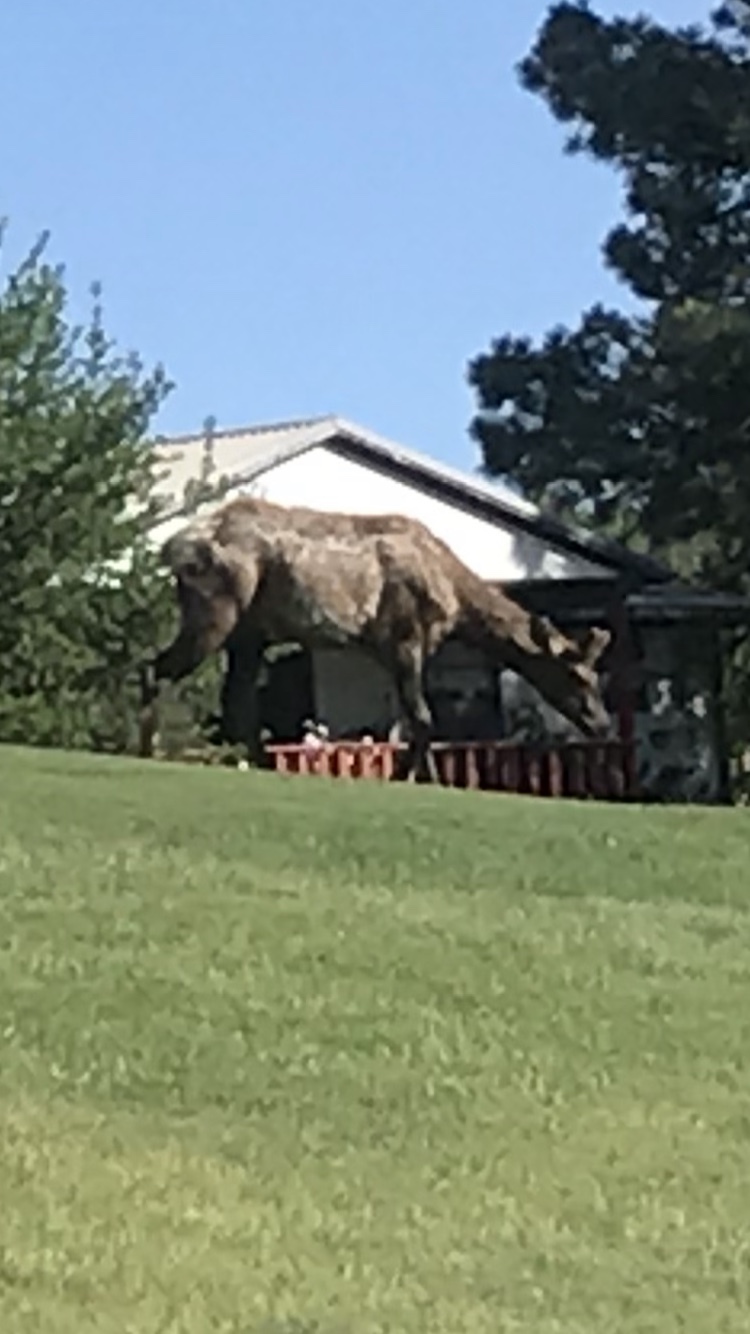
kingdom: Animalia
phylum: Chordata
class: Mammalia
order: Artiodactyla
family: Cervidae
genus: Cervus
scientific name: Cervus elaphus
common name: Red deer
